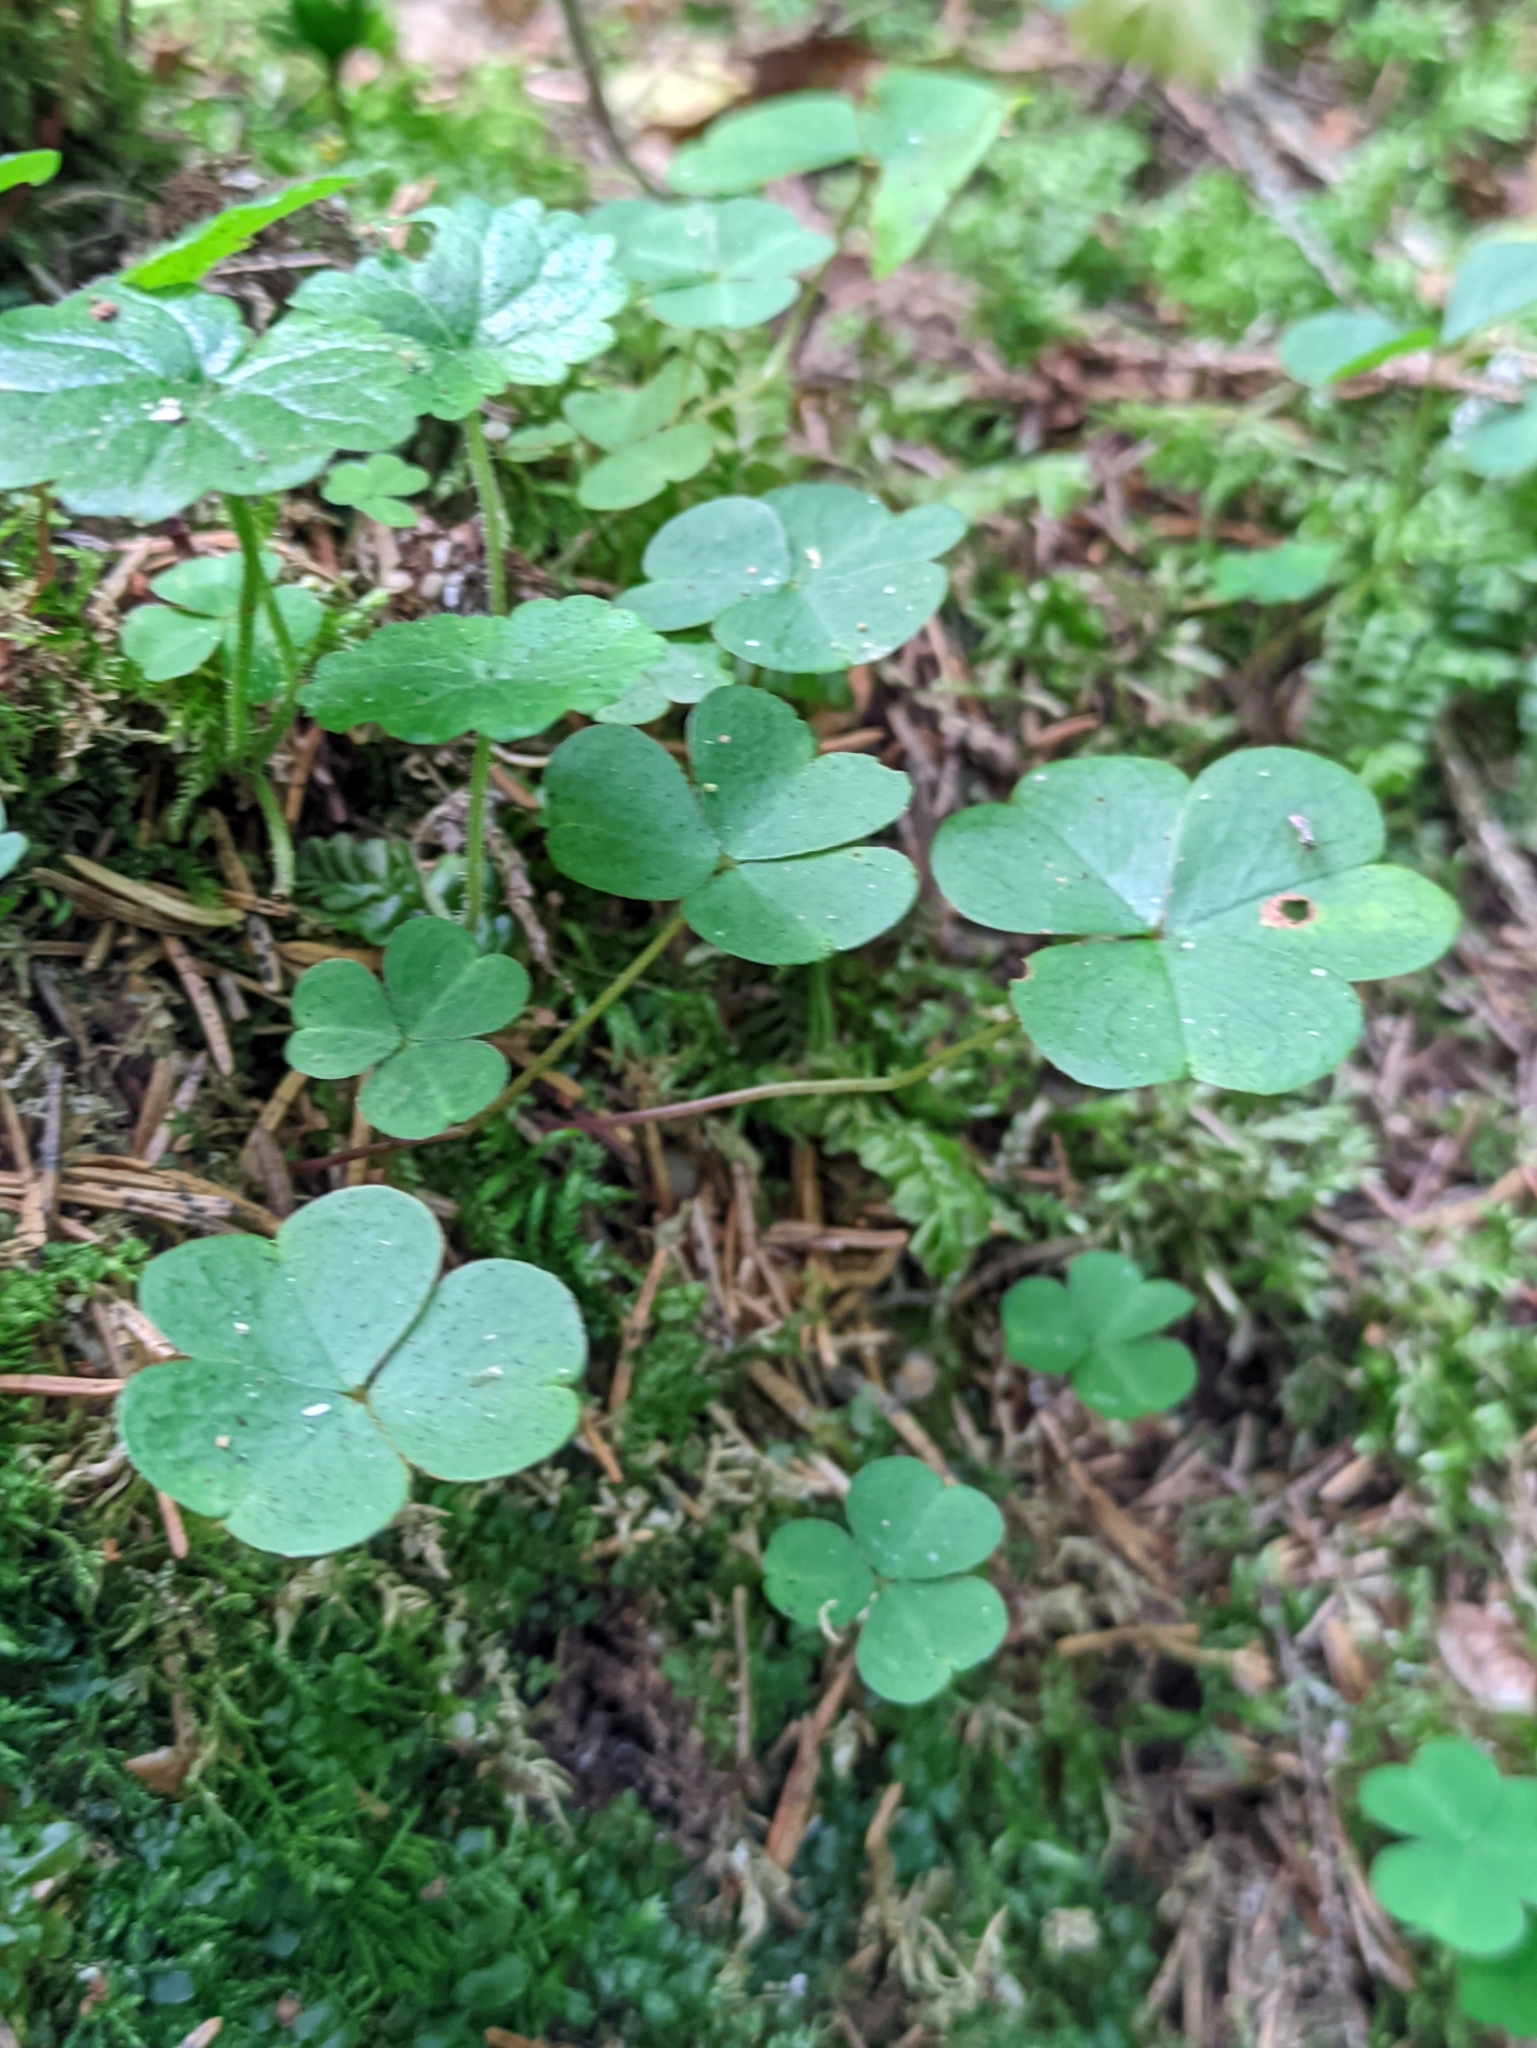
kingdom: Plantae
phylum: Tracheophyta
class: Magnoliopsida
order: Oxalidales
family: Oxalidaceae
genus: Oxalis
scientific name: Oxalis acetosella
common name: Wood-sorrel
